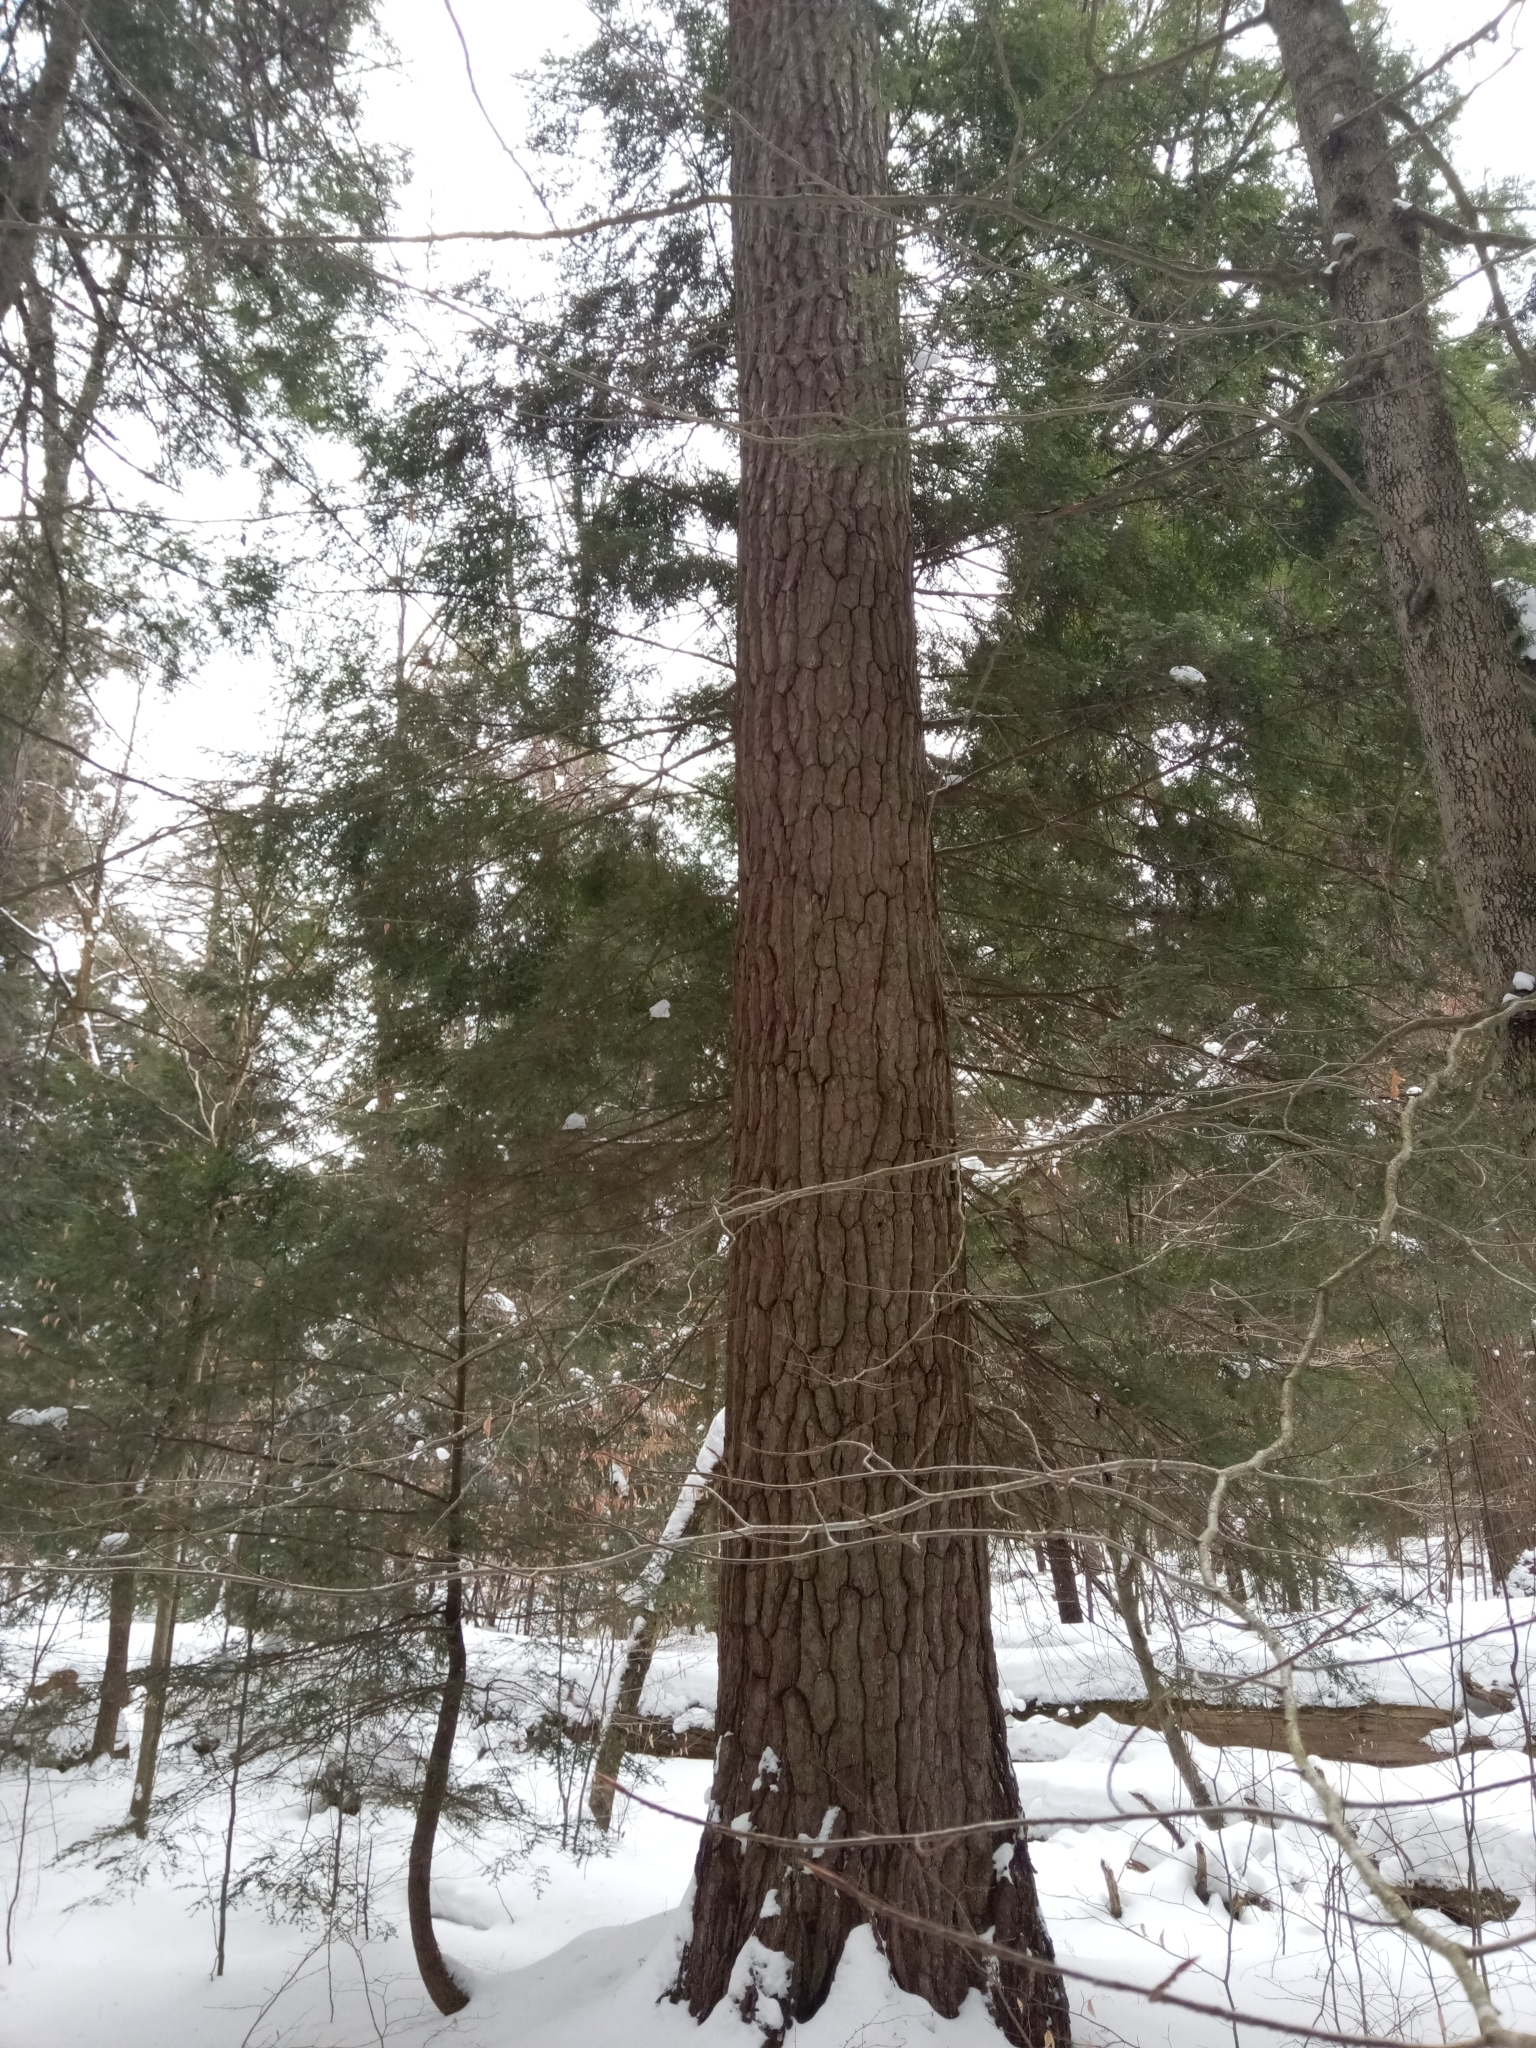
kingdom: Plantae
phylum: Tracheophyta
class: Pinopsida
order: Pinales
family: Pinaceae
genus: Pinus
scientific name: Pinus strobus
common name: Weymouth pine
